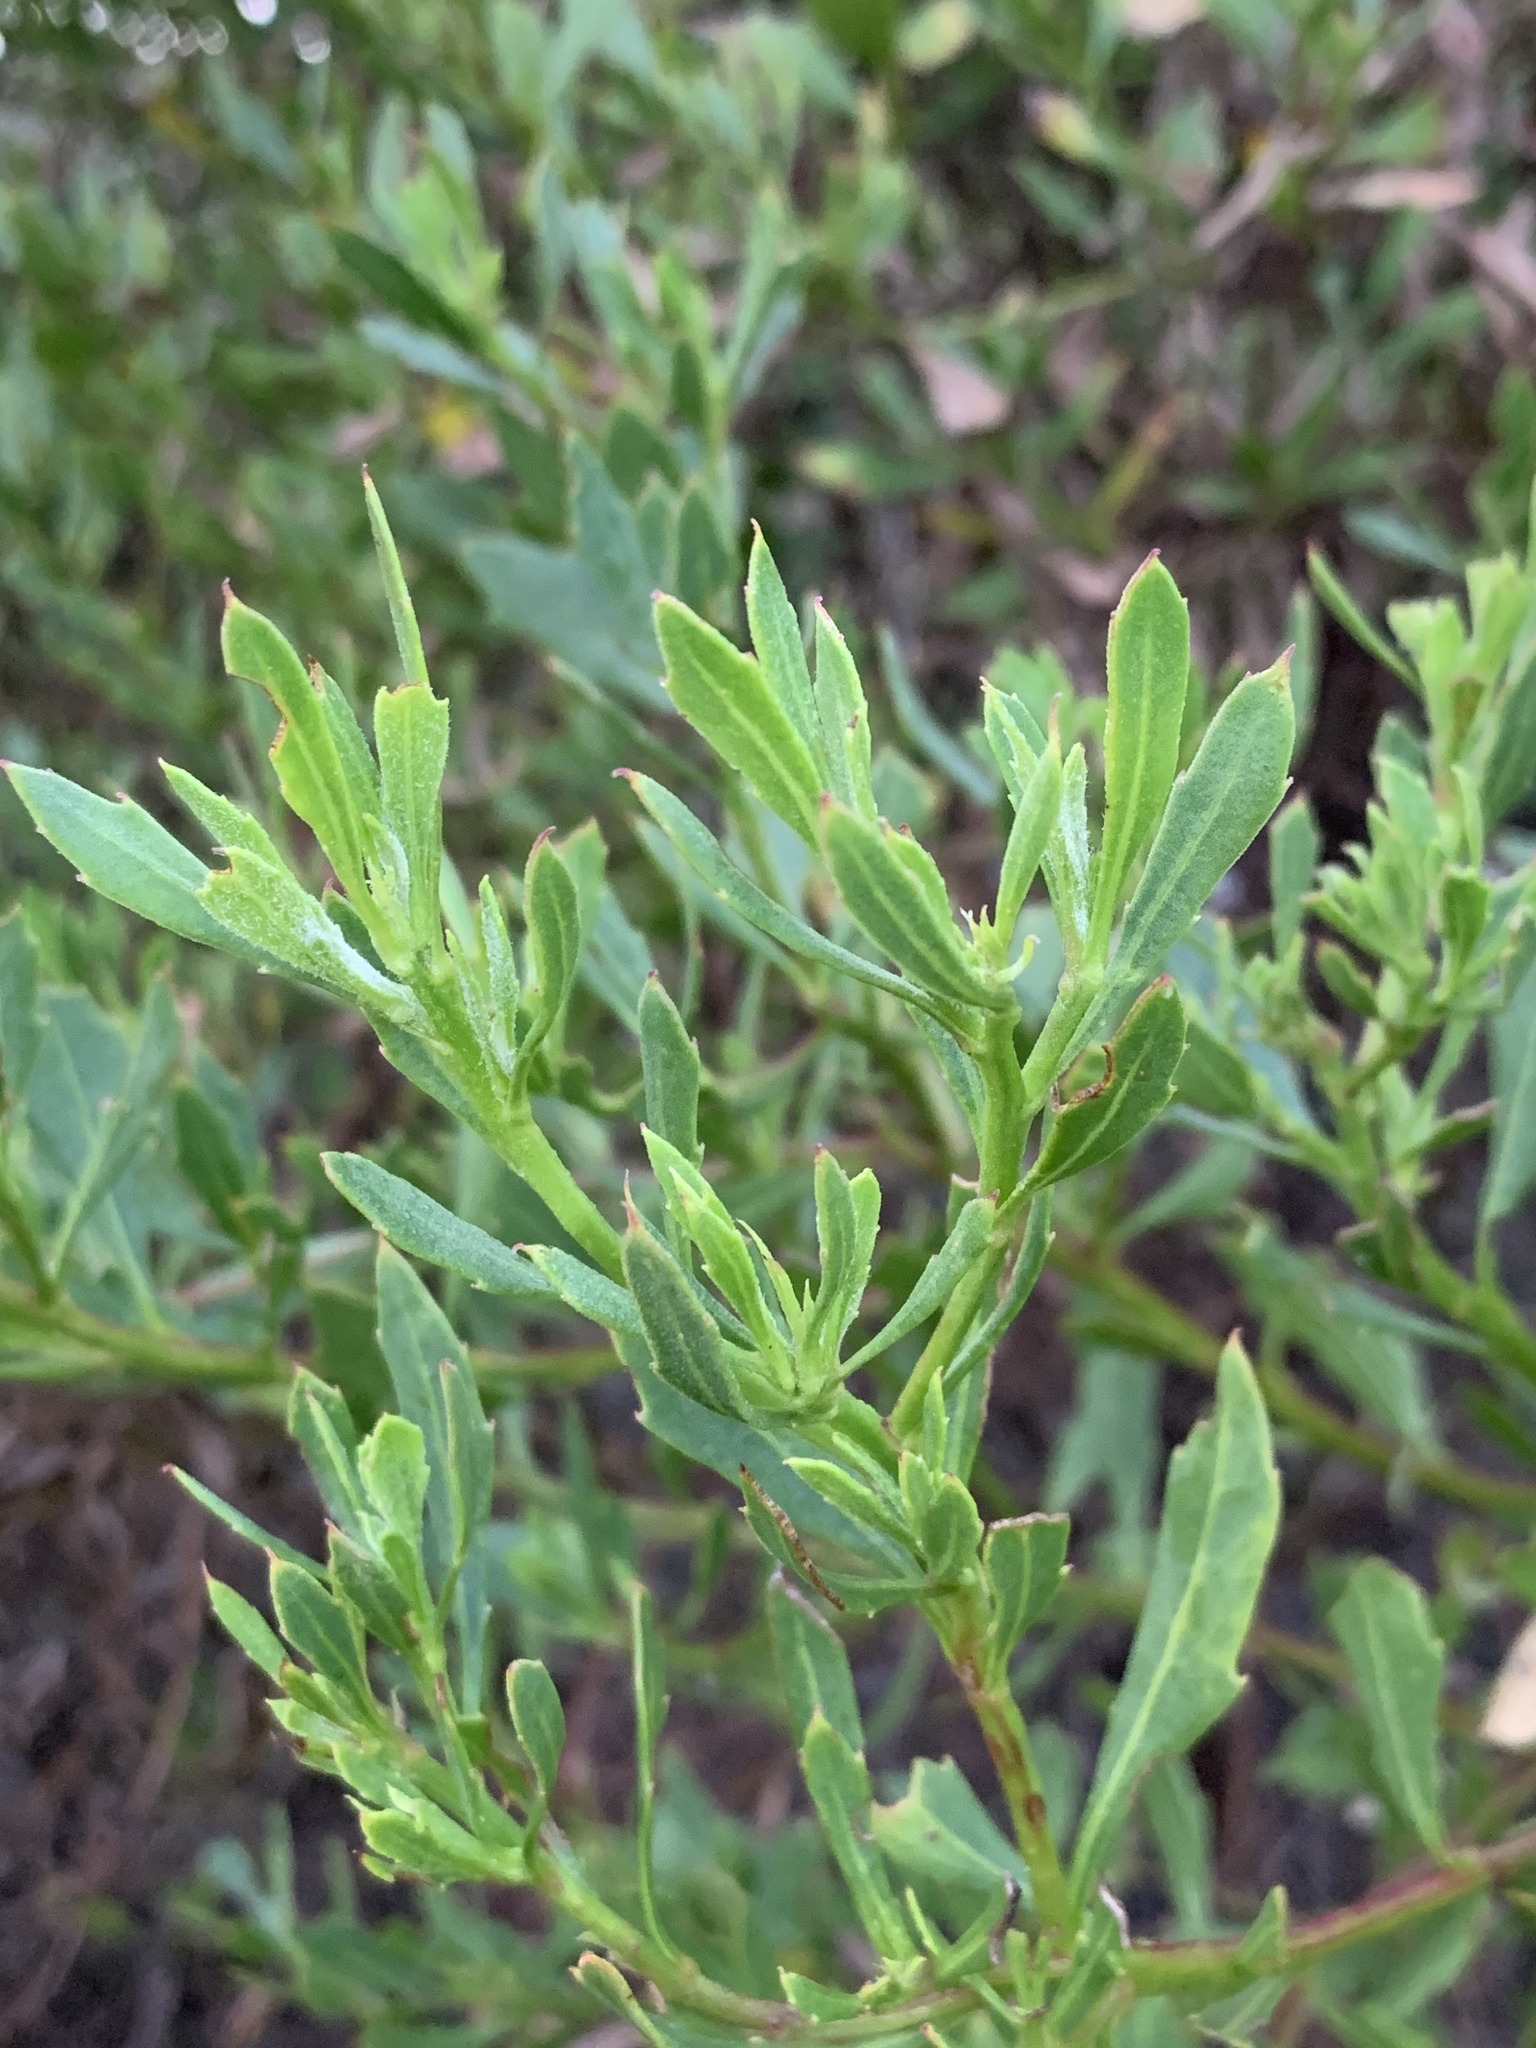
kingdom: Plantae
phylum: Tracheophyta
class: Magnoliopsida
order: Asterales
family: Asteraceae
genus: Osteospermum
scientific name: Osteospermum moniliferum
